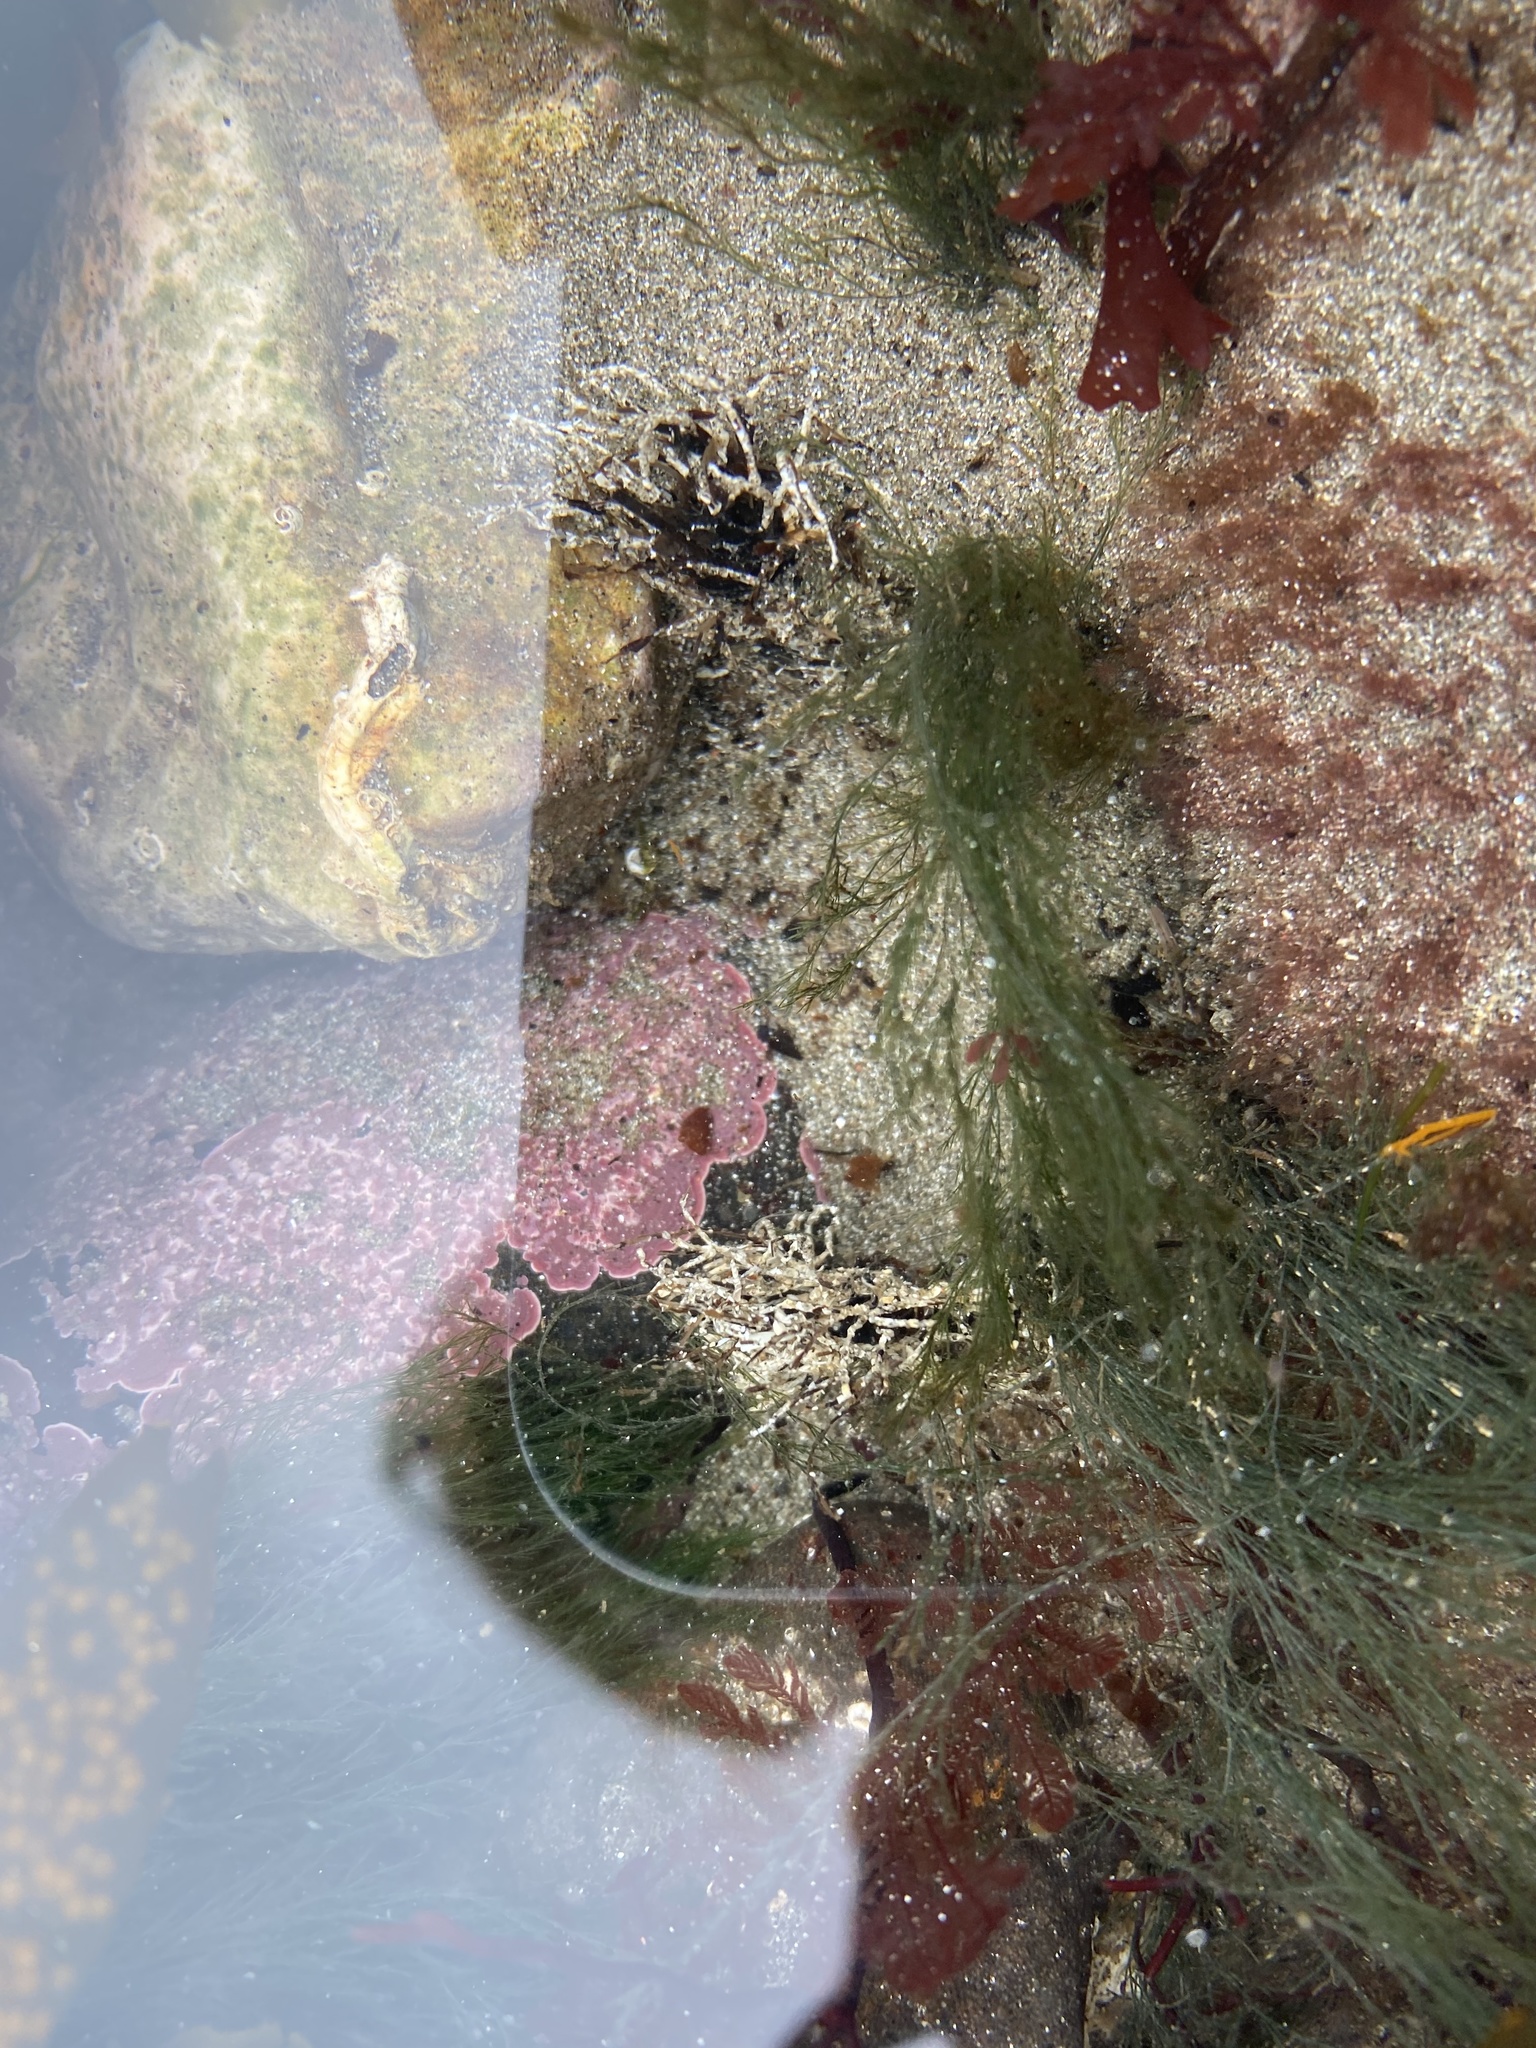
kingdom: Animalia
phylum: Annelida
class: Polychaeta
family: Terebellidae
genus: Lanice
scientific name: Lanice conchilega
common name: Sand mason
